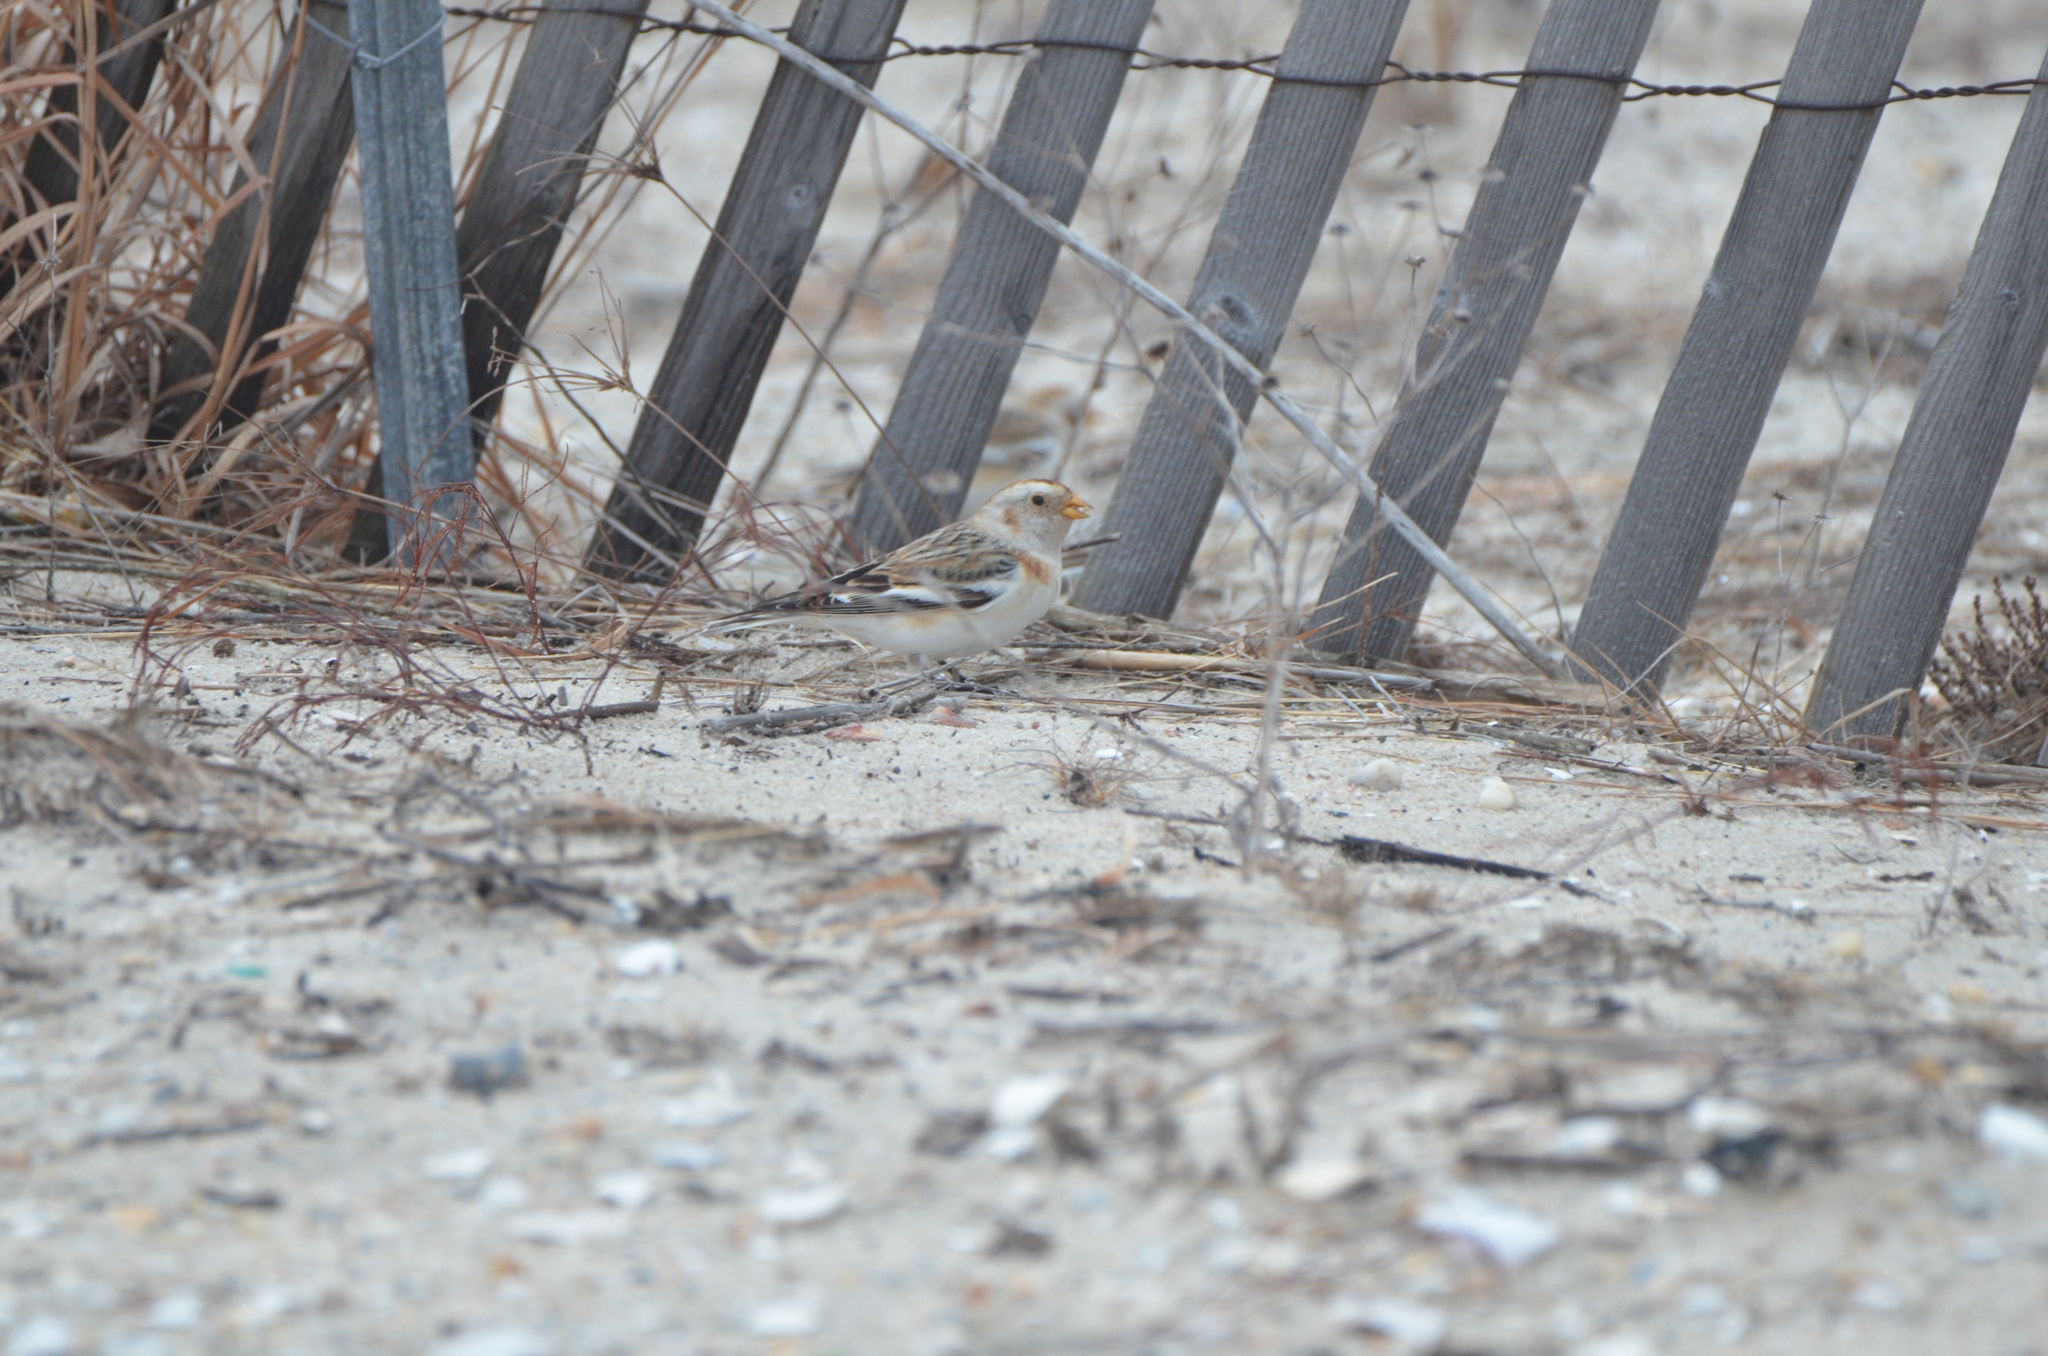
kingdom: Animalia
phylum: Chordata
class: Aves
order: Passeriformes
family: Calcariidae
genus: Plectrophenax
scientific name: Plectrophenax nivalis
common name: Snow bunting
